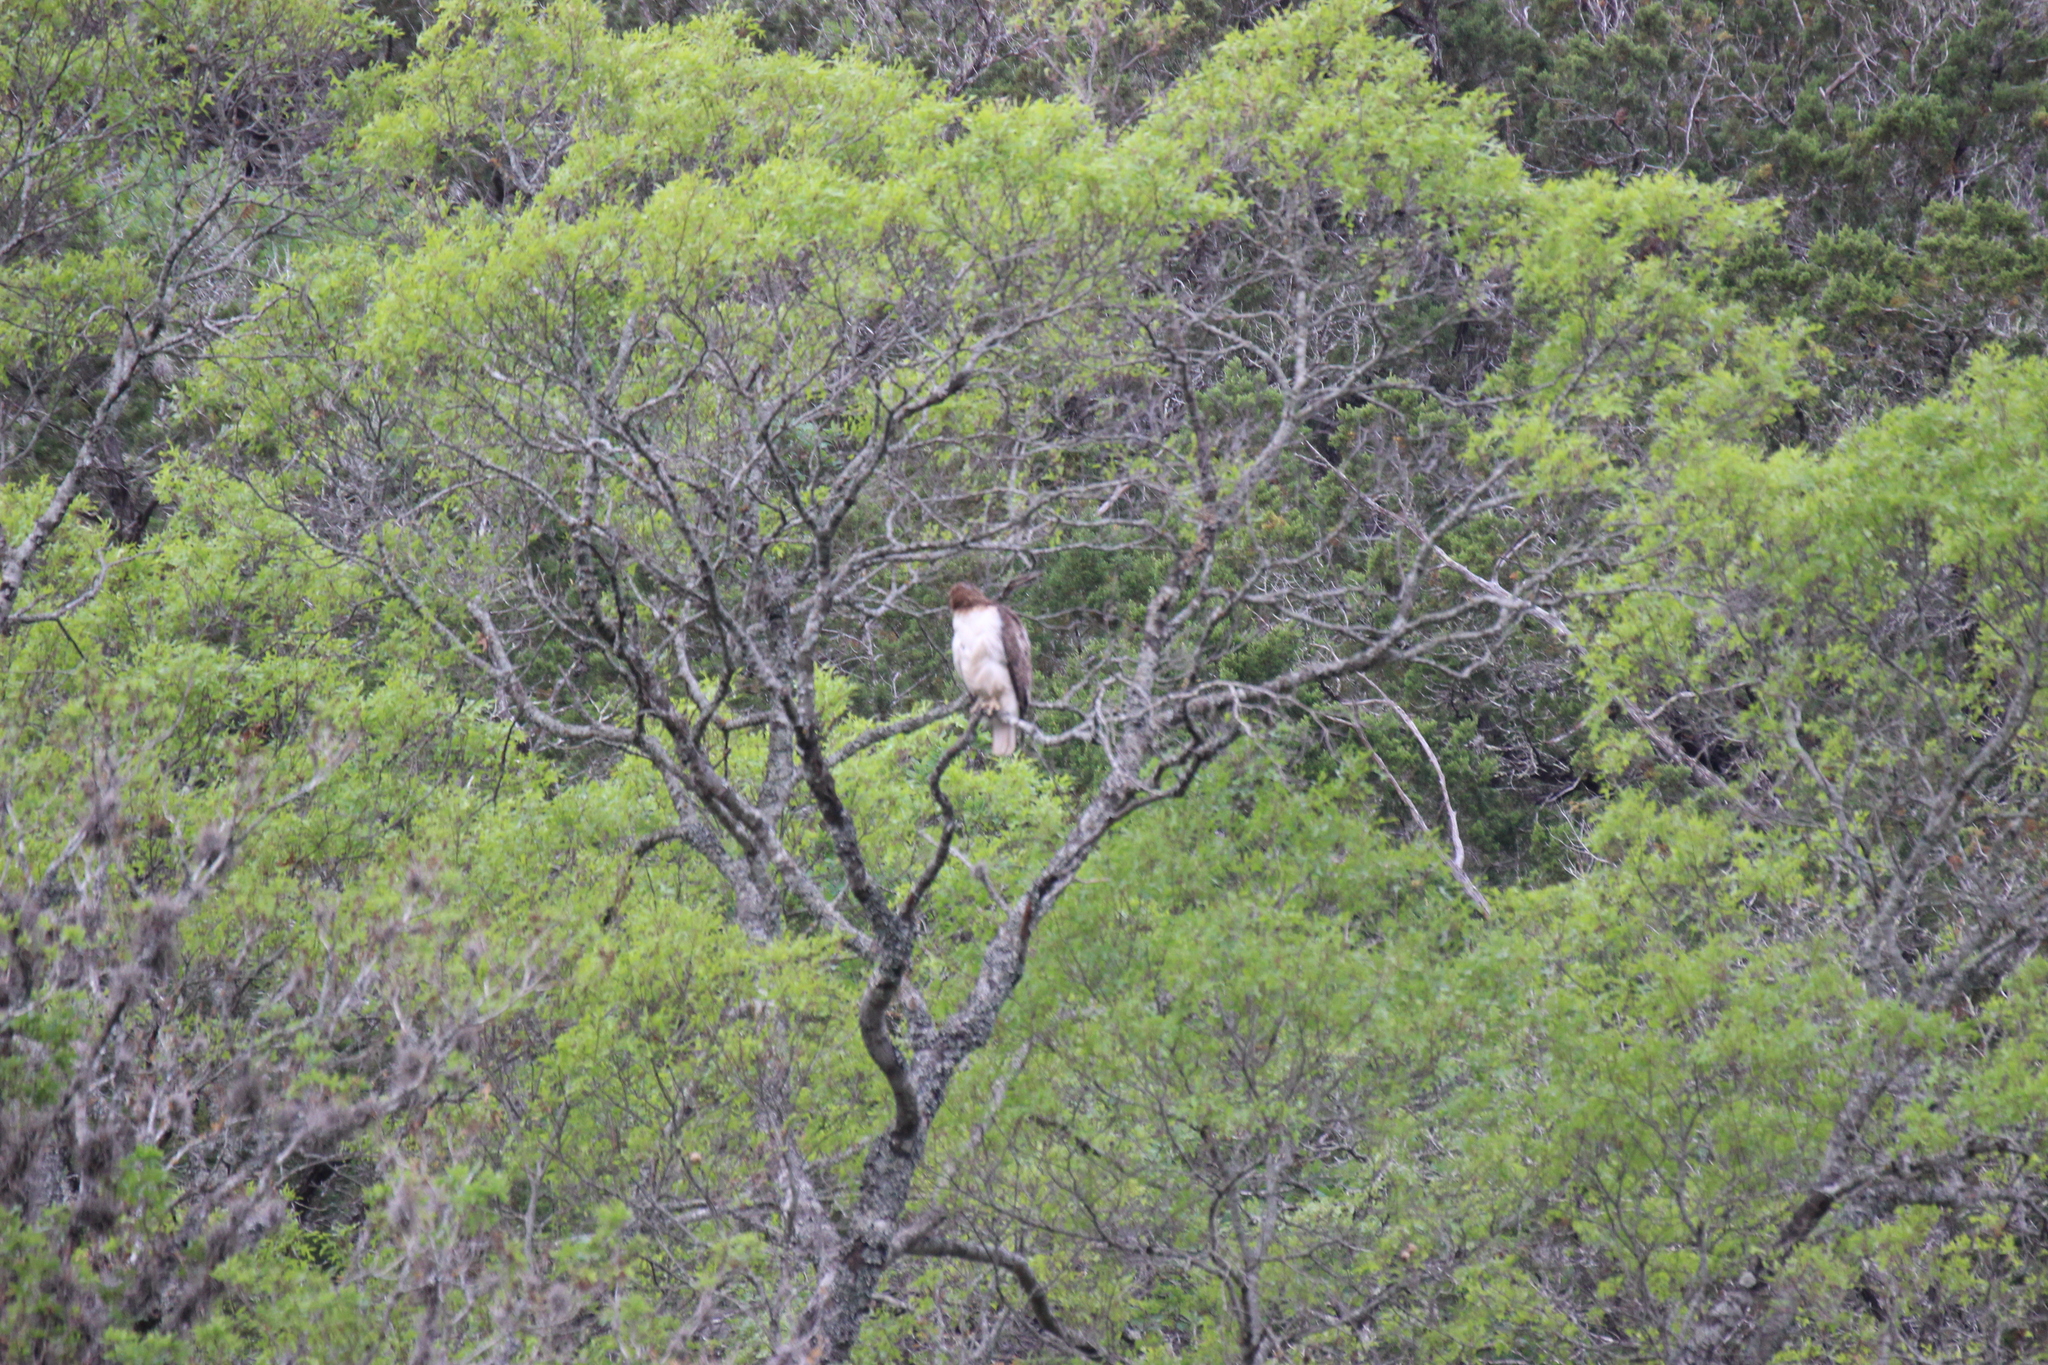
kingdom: Animalia
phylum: Chordata
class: Aves
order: Accipitriformes
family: Accipitridae
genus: Buteo
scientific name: Buteo jamaicensis
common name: Red-tailed hawk
